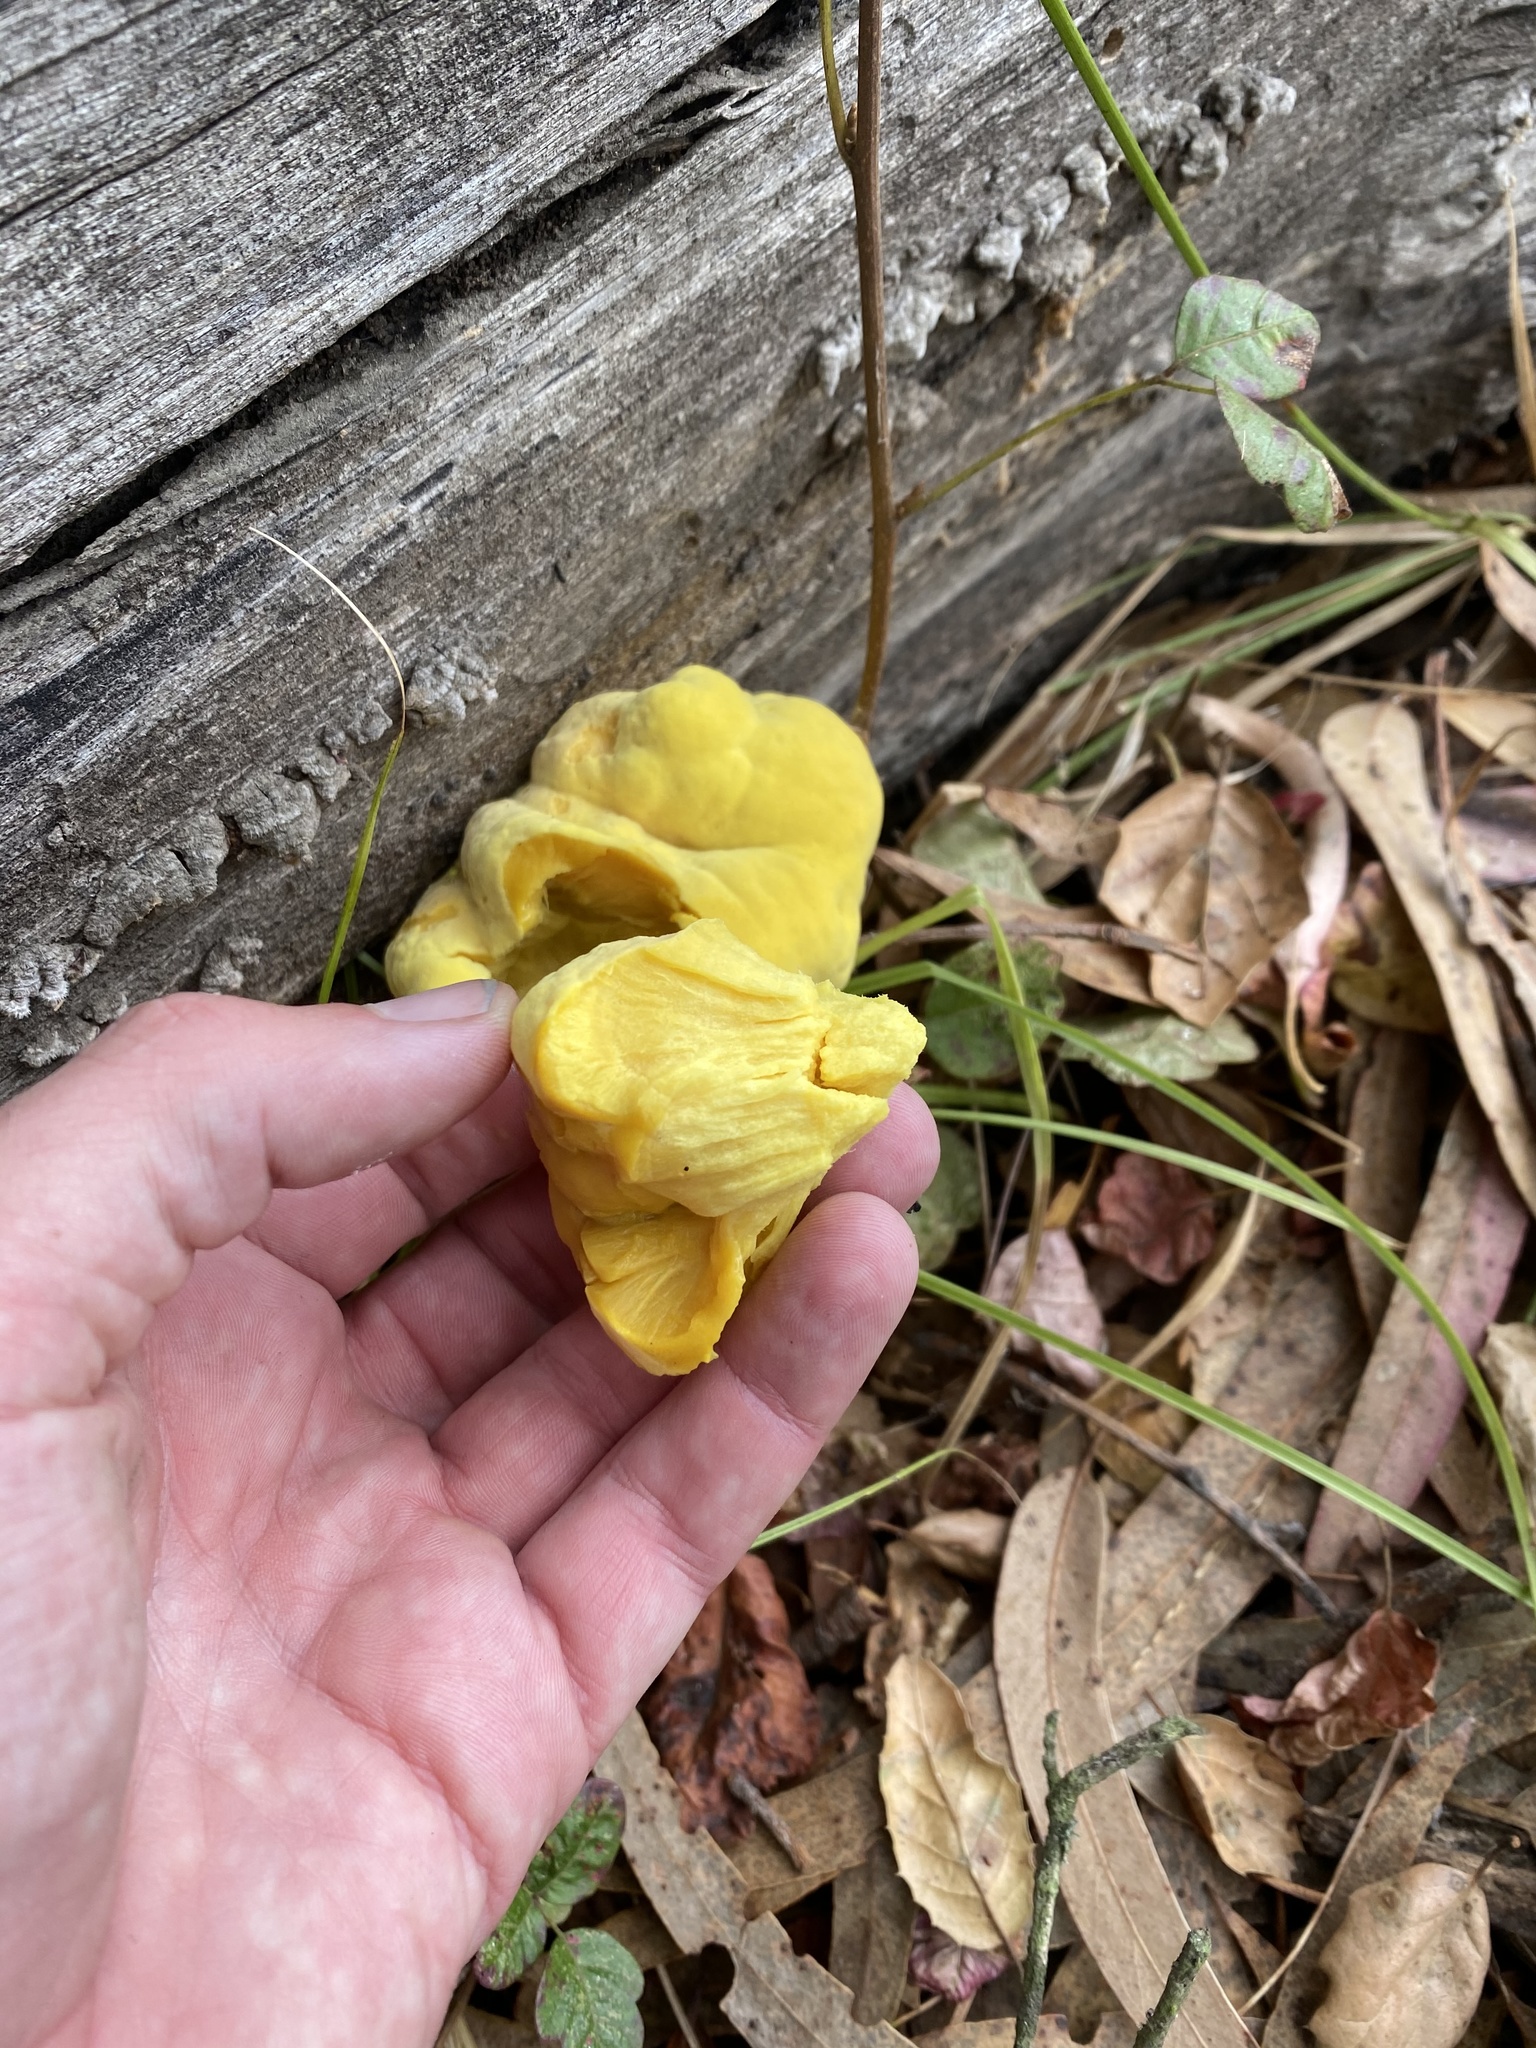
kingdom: Fungi
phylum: Basidiomycota
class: Agaricomycetes
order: Polyporales
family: Laetiporaceae
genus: Laetiporus
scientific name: Laetiporus gilbertsonii
